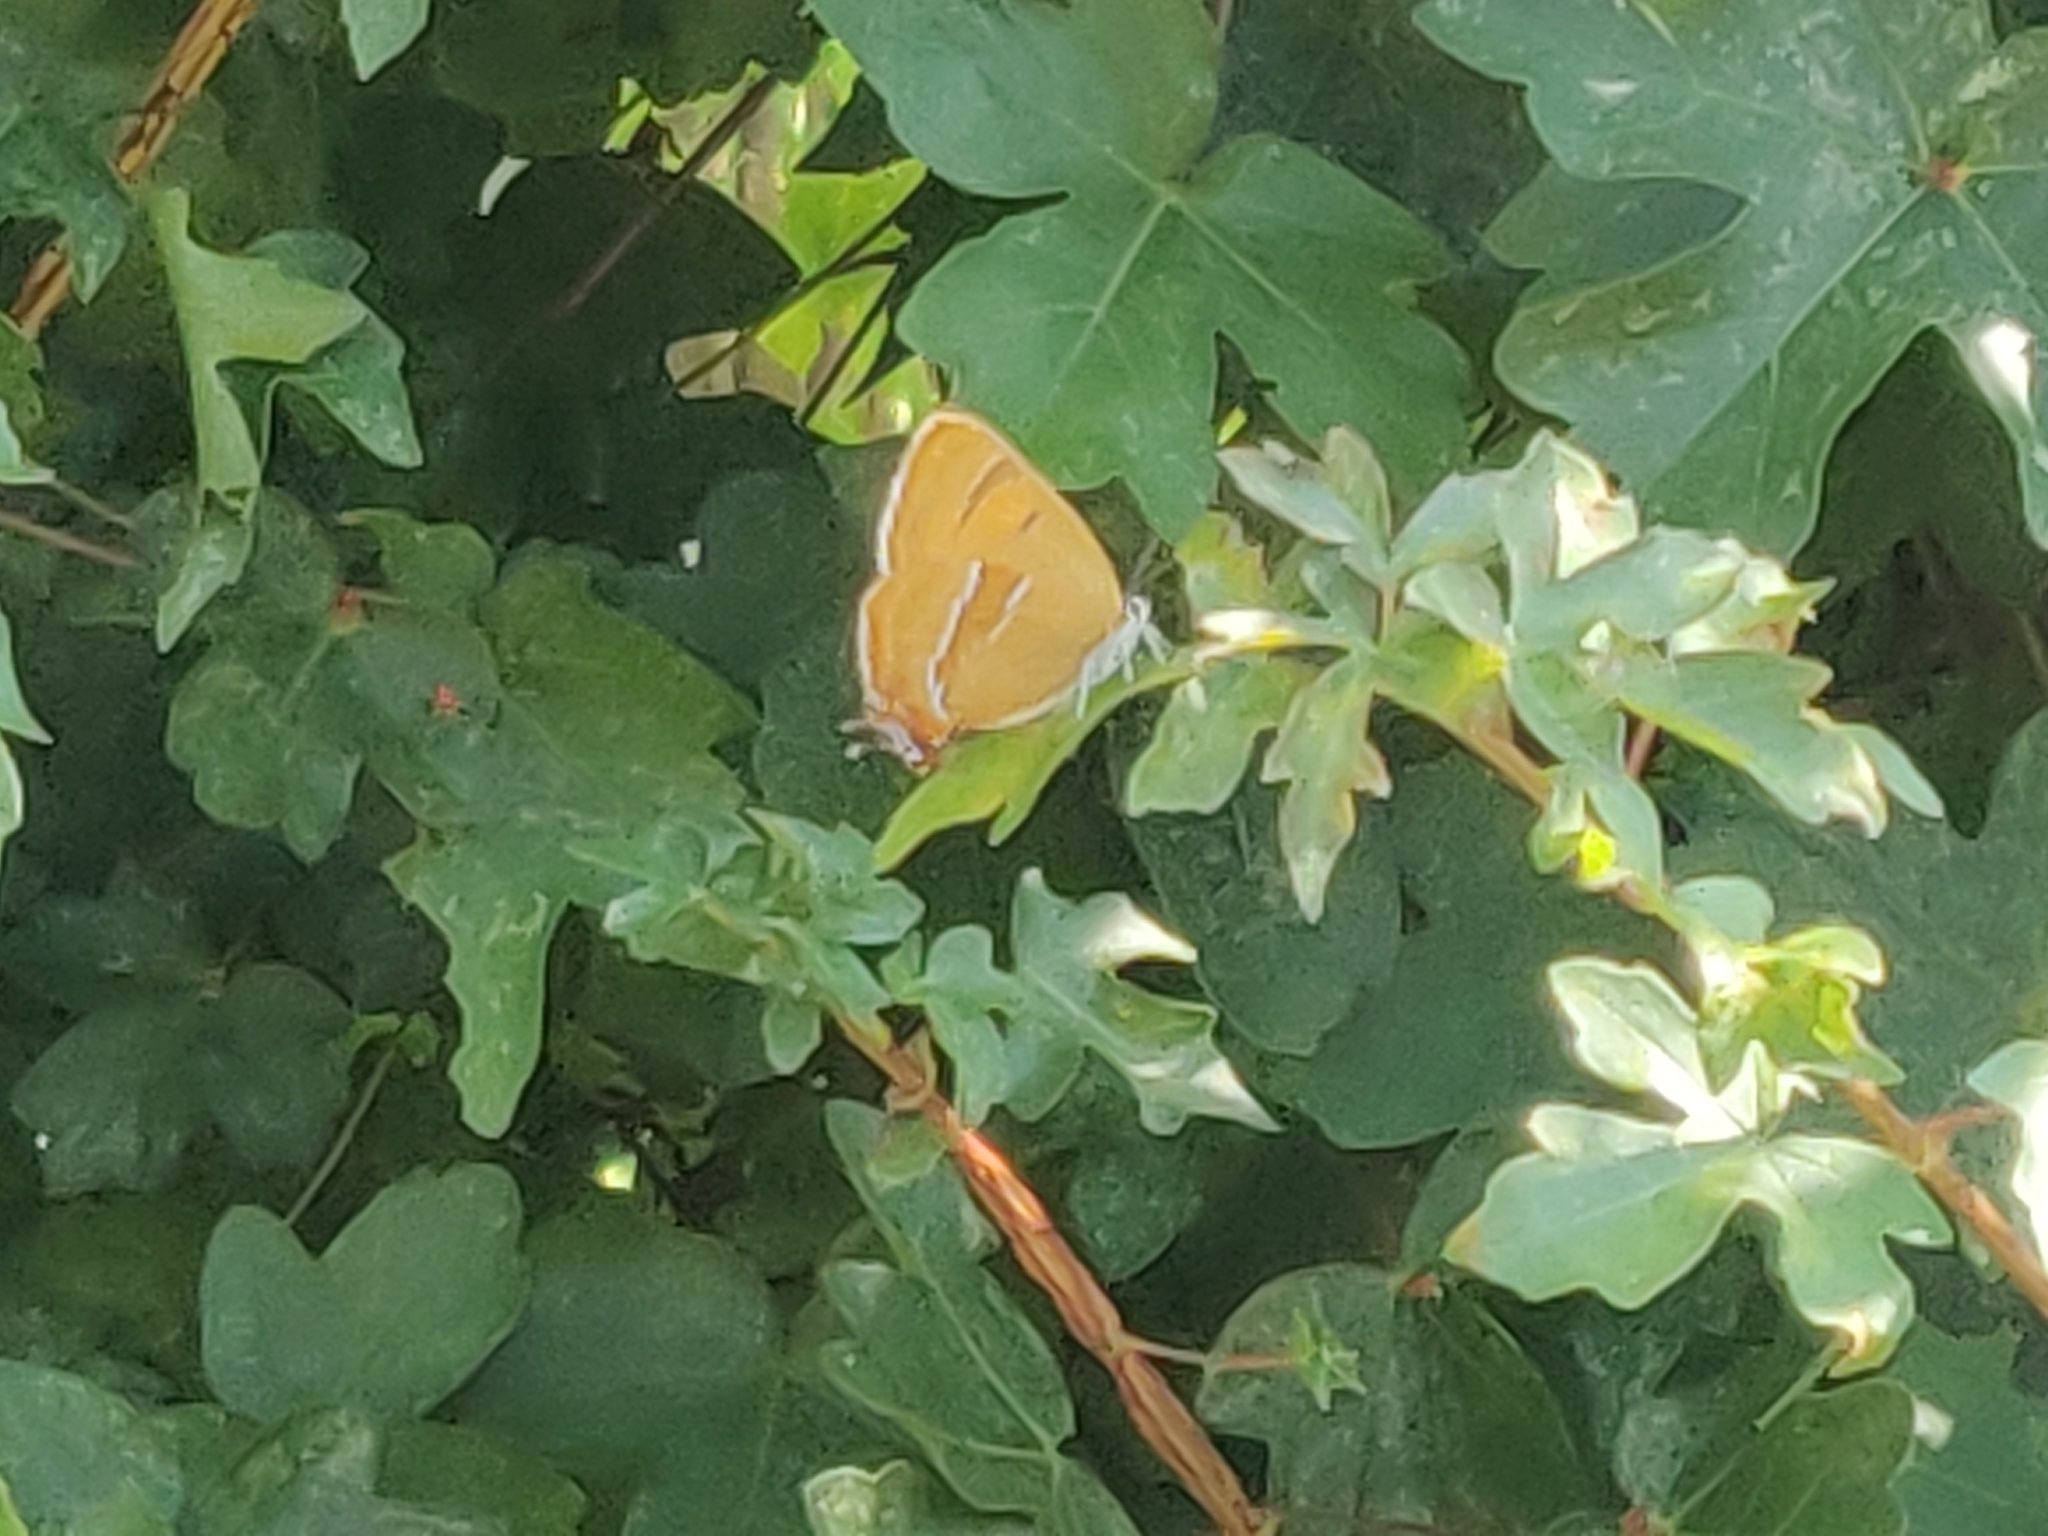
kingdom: Animalia
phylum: Arthropoda
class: Insecta
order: Lepidoptera
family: Lycaenidae
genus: Thecla
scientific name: Thecla betulae
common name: Brown hairstreak
